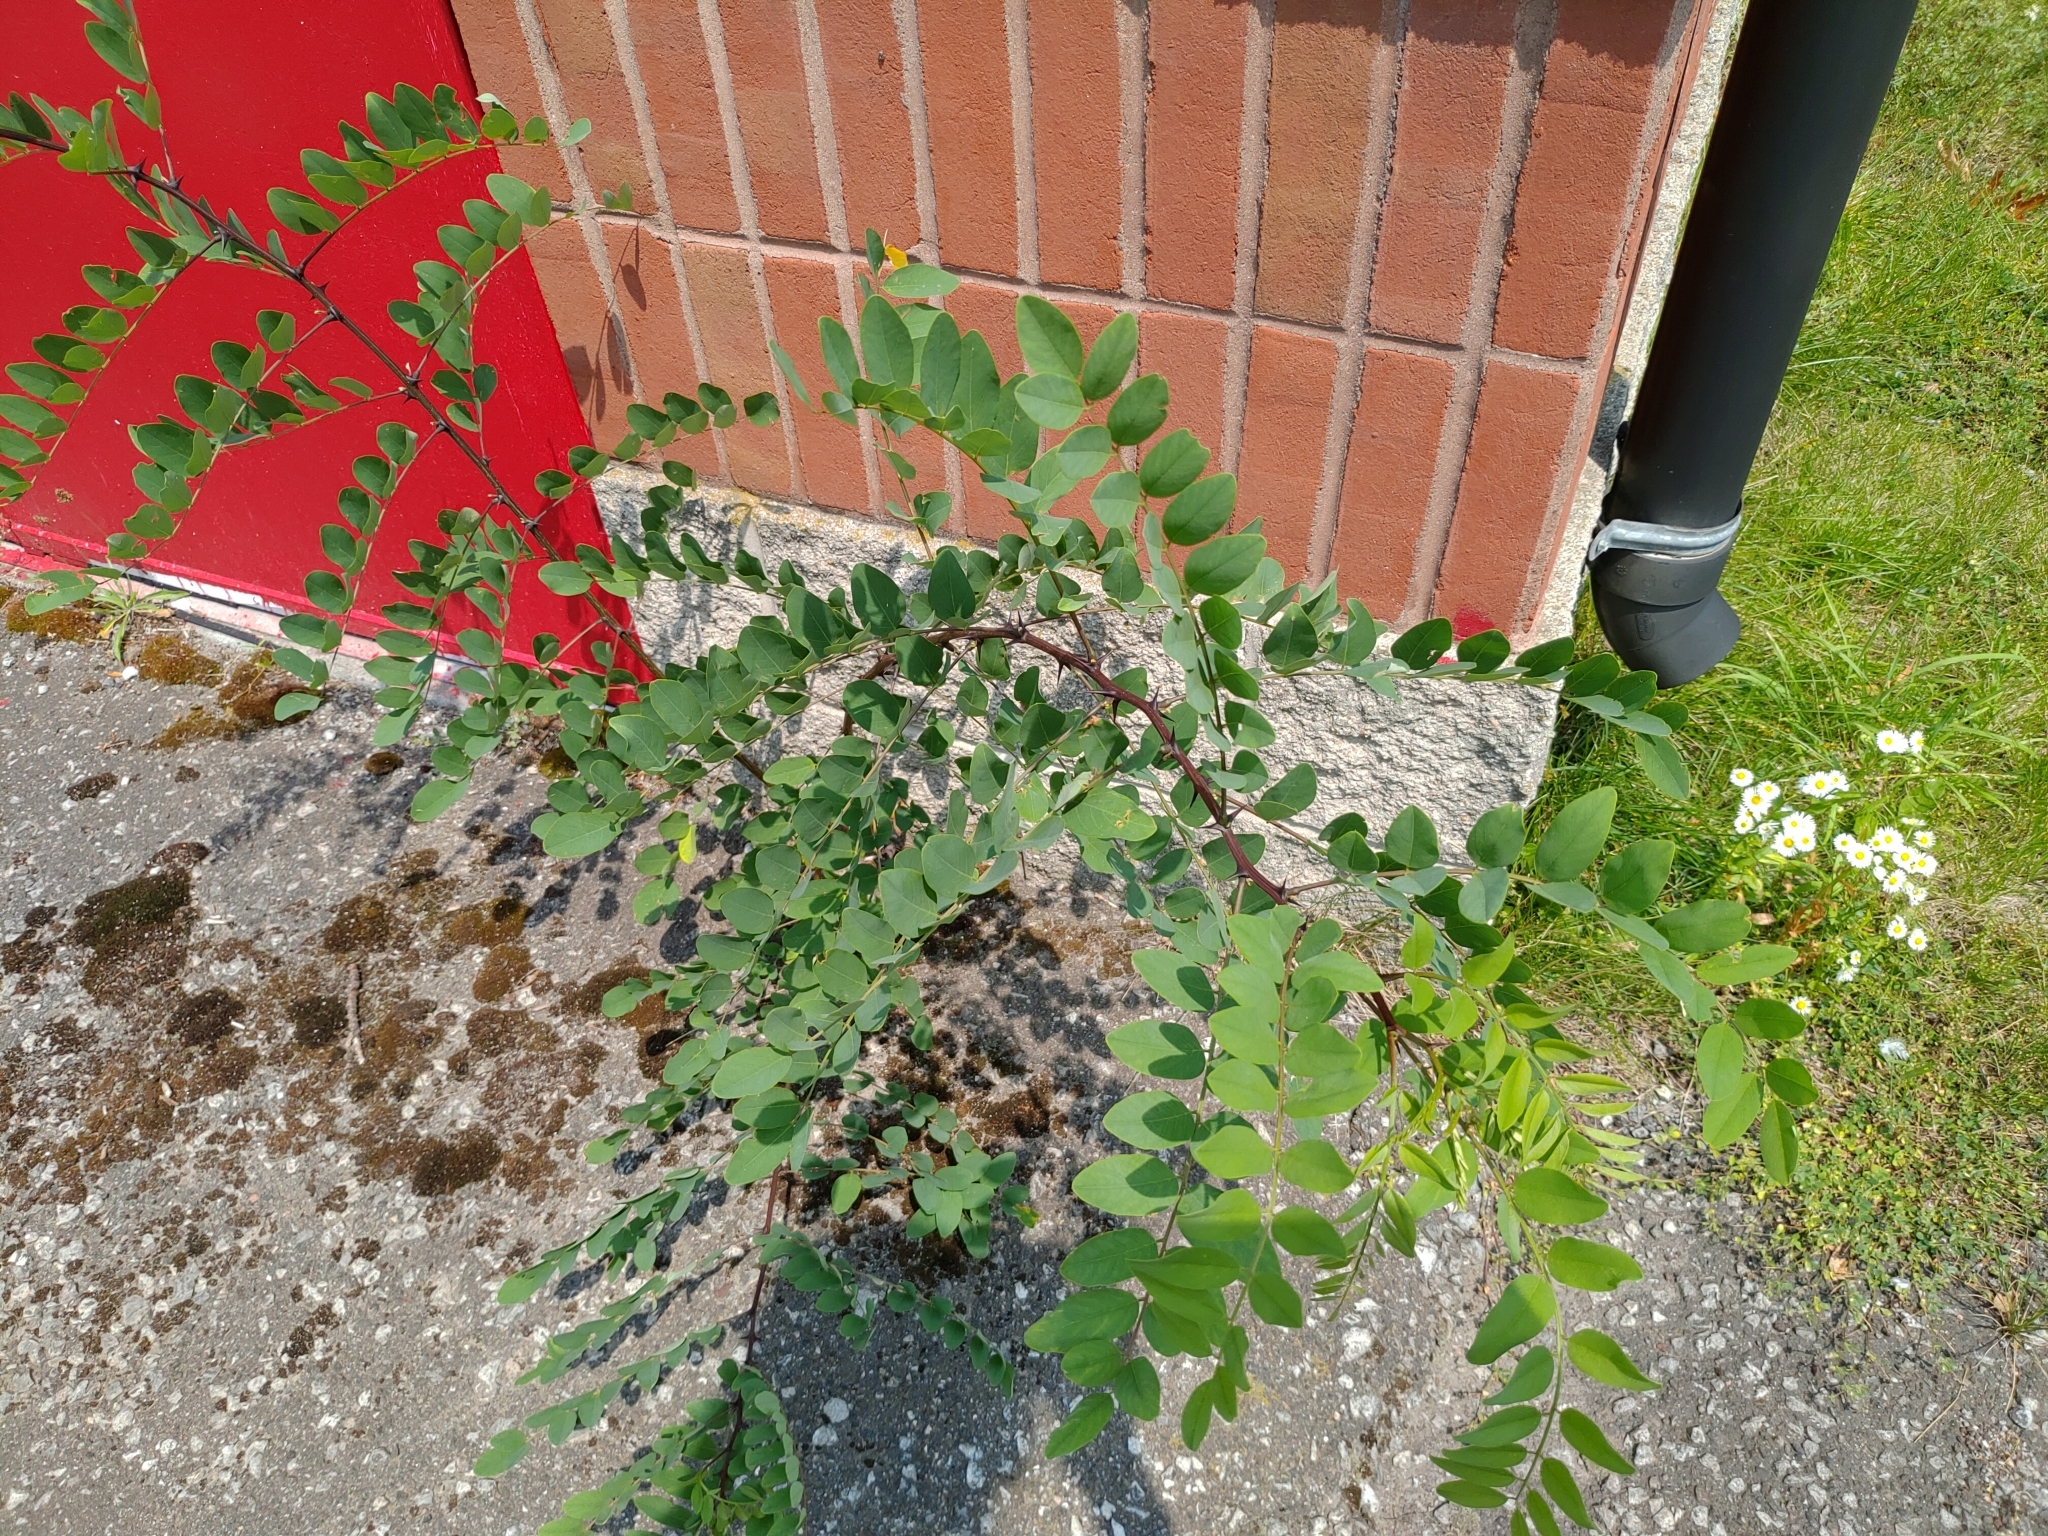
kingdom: Plantae
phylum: Tracheophyta
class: Magnoliopsida
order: Fabales
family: Fabaceae
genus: Robinia
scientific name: Robinia pseudoacacia
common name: Black locust
